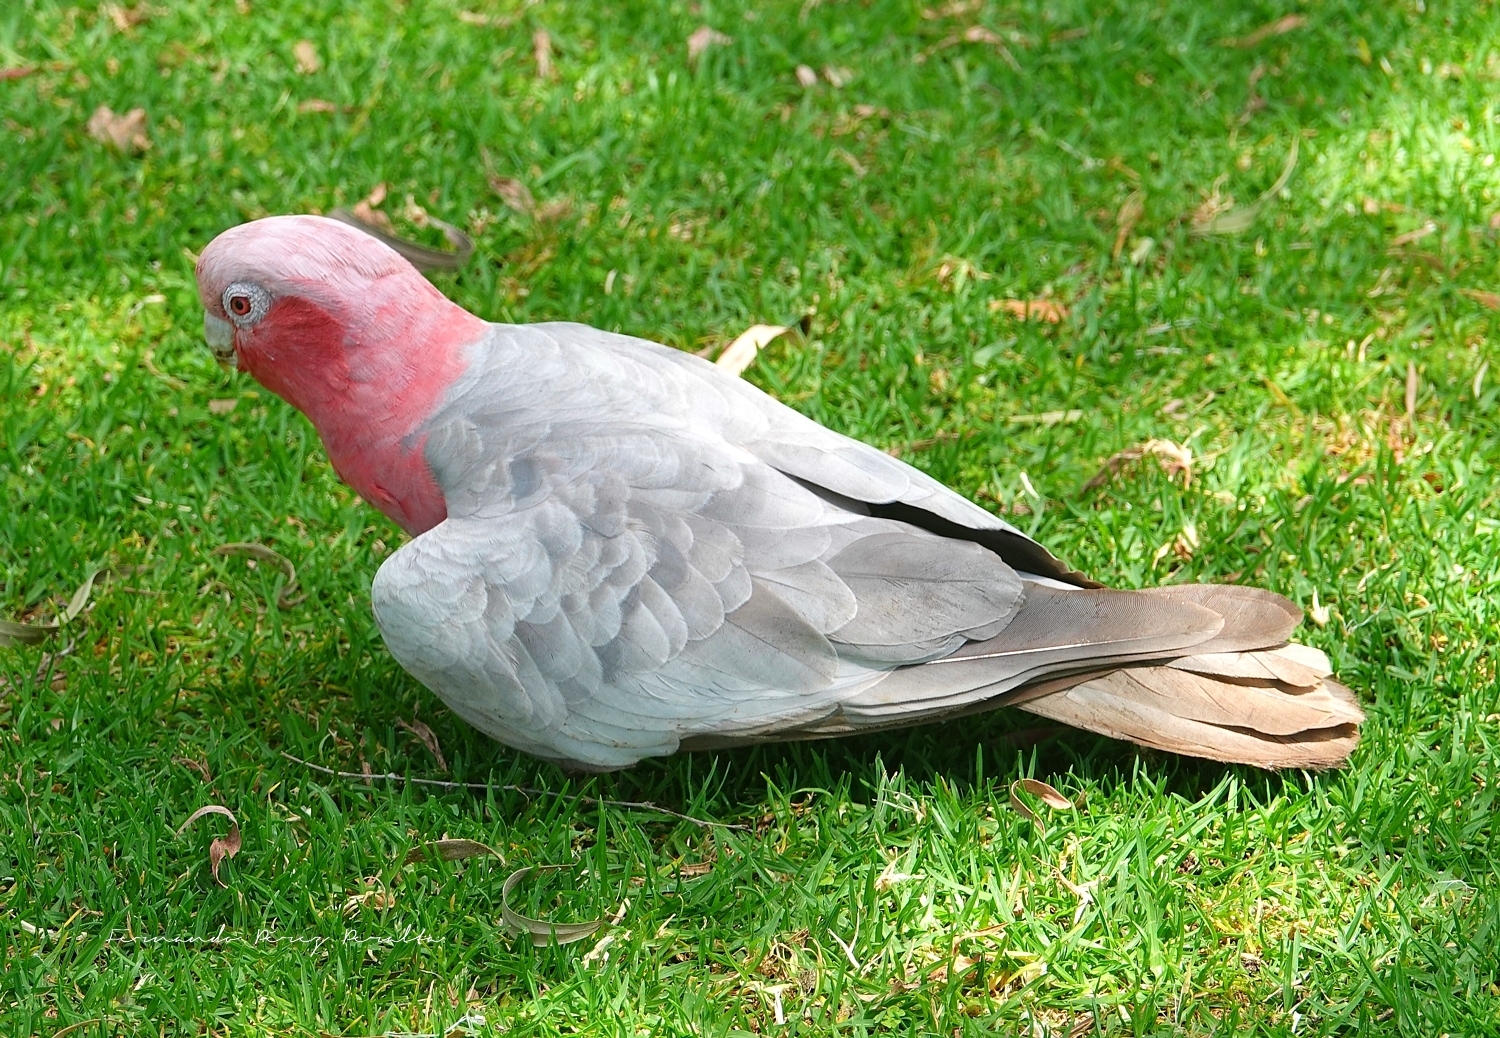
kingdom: Animalia
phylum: Chordata
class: Aves
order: Psittaciformes
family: Psittacidae
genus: Eolophus
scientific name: Eolophus roseicapilla
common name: Galah
